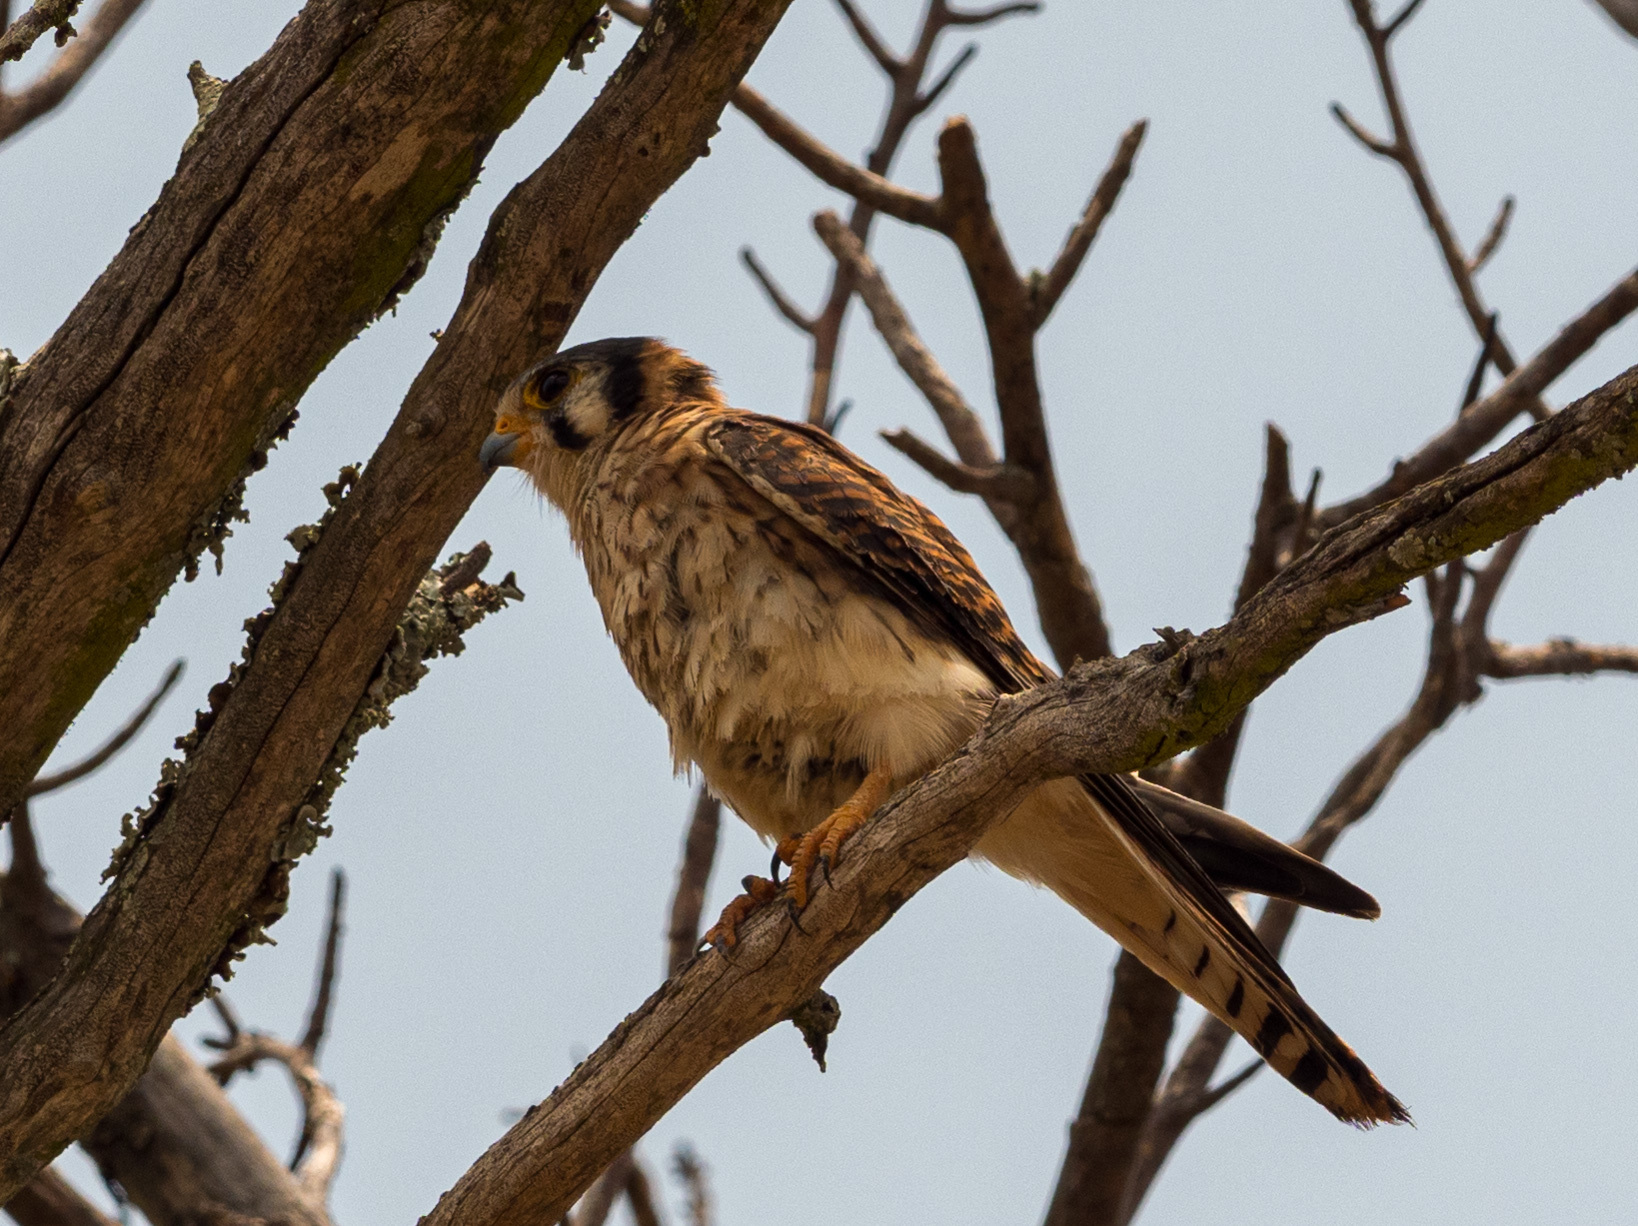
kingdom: Animalia
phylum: Chordata
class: Aves
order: Falconiformes
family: Falconidae
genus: Falco
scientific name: Falco sparverius
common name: American kestrel
